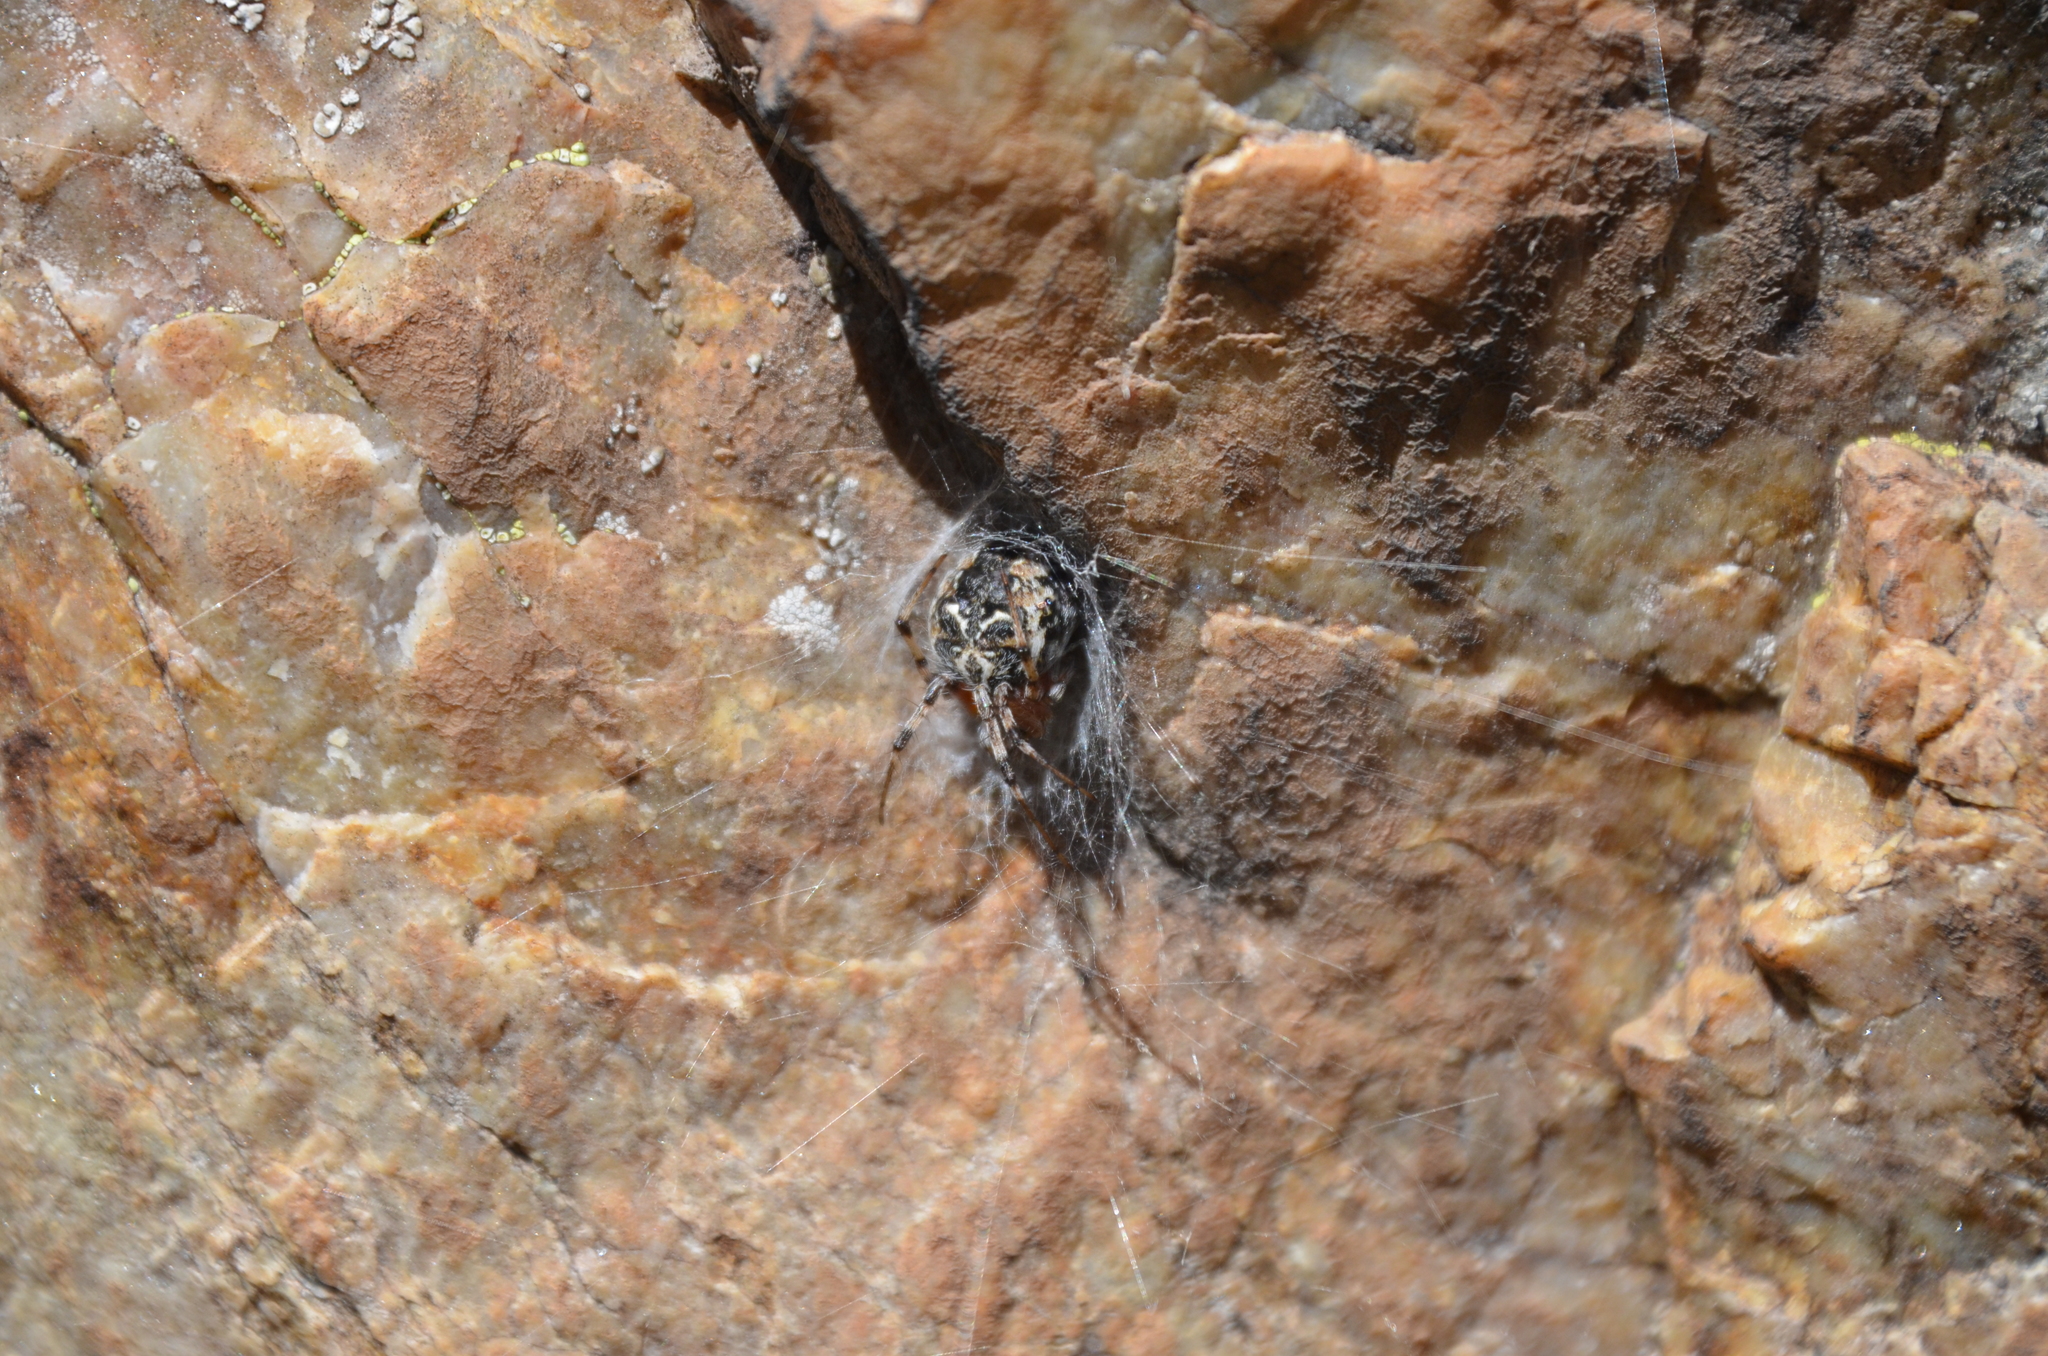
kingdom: Animalia
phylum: Arthropoda
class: Arachnida
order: Araneae
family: Araneidae
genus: Metepeira
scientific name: Metepeira
